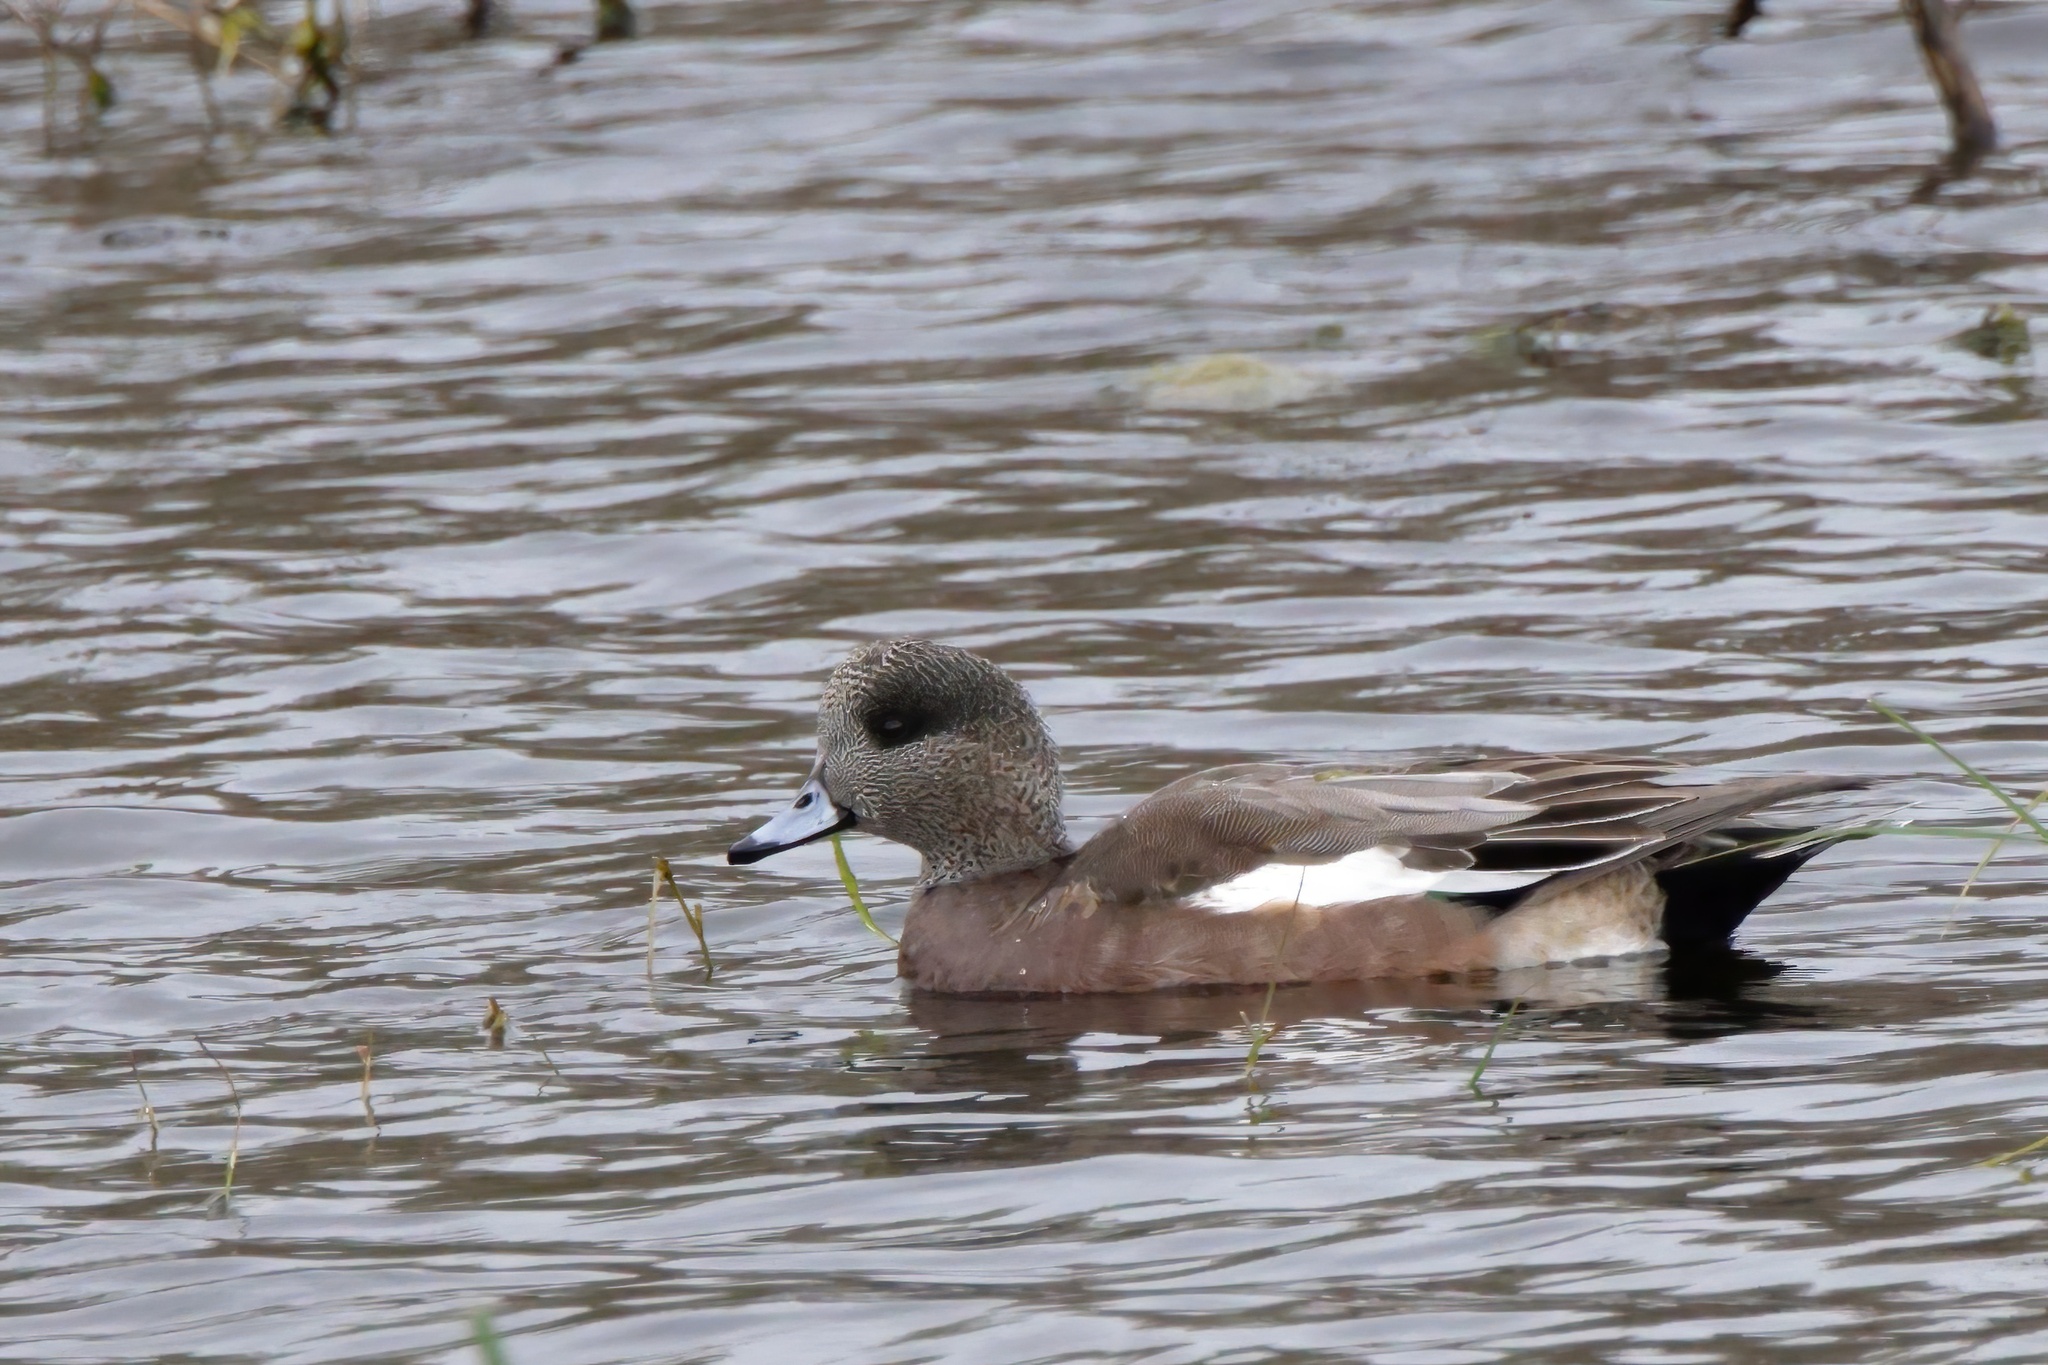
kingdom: Animalia
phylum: Chordata
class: Aves
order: Anseriformes
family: Anatidae
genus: Mareca
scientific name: Mareca americana
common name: American wigeon
